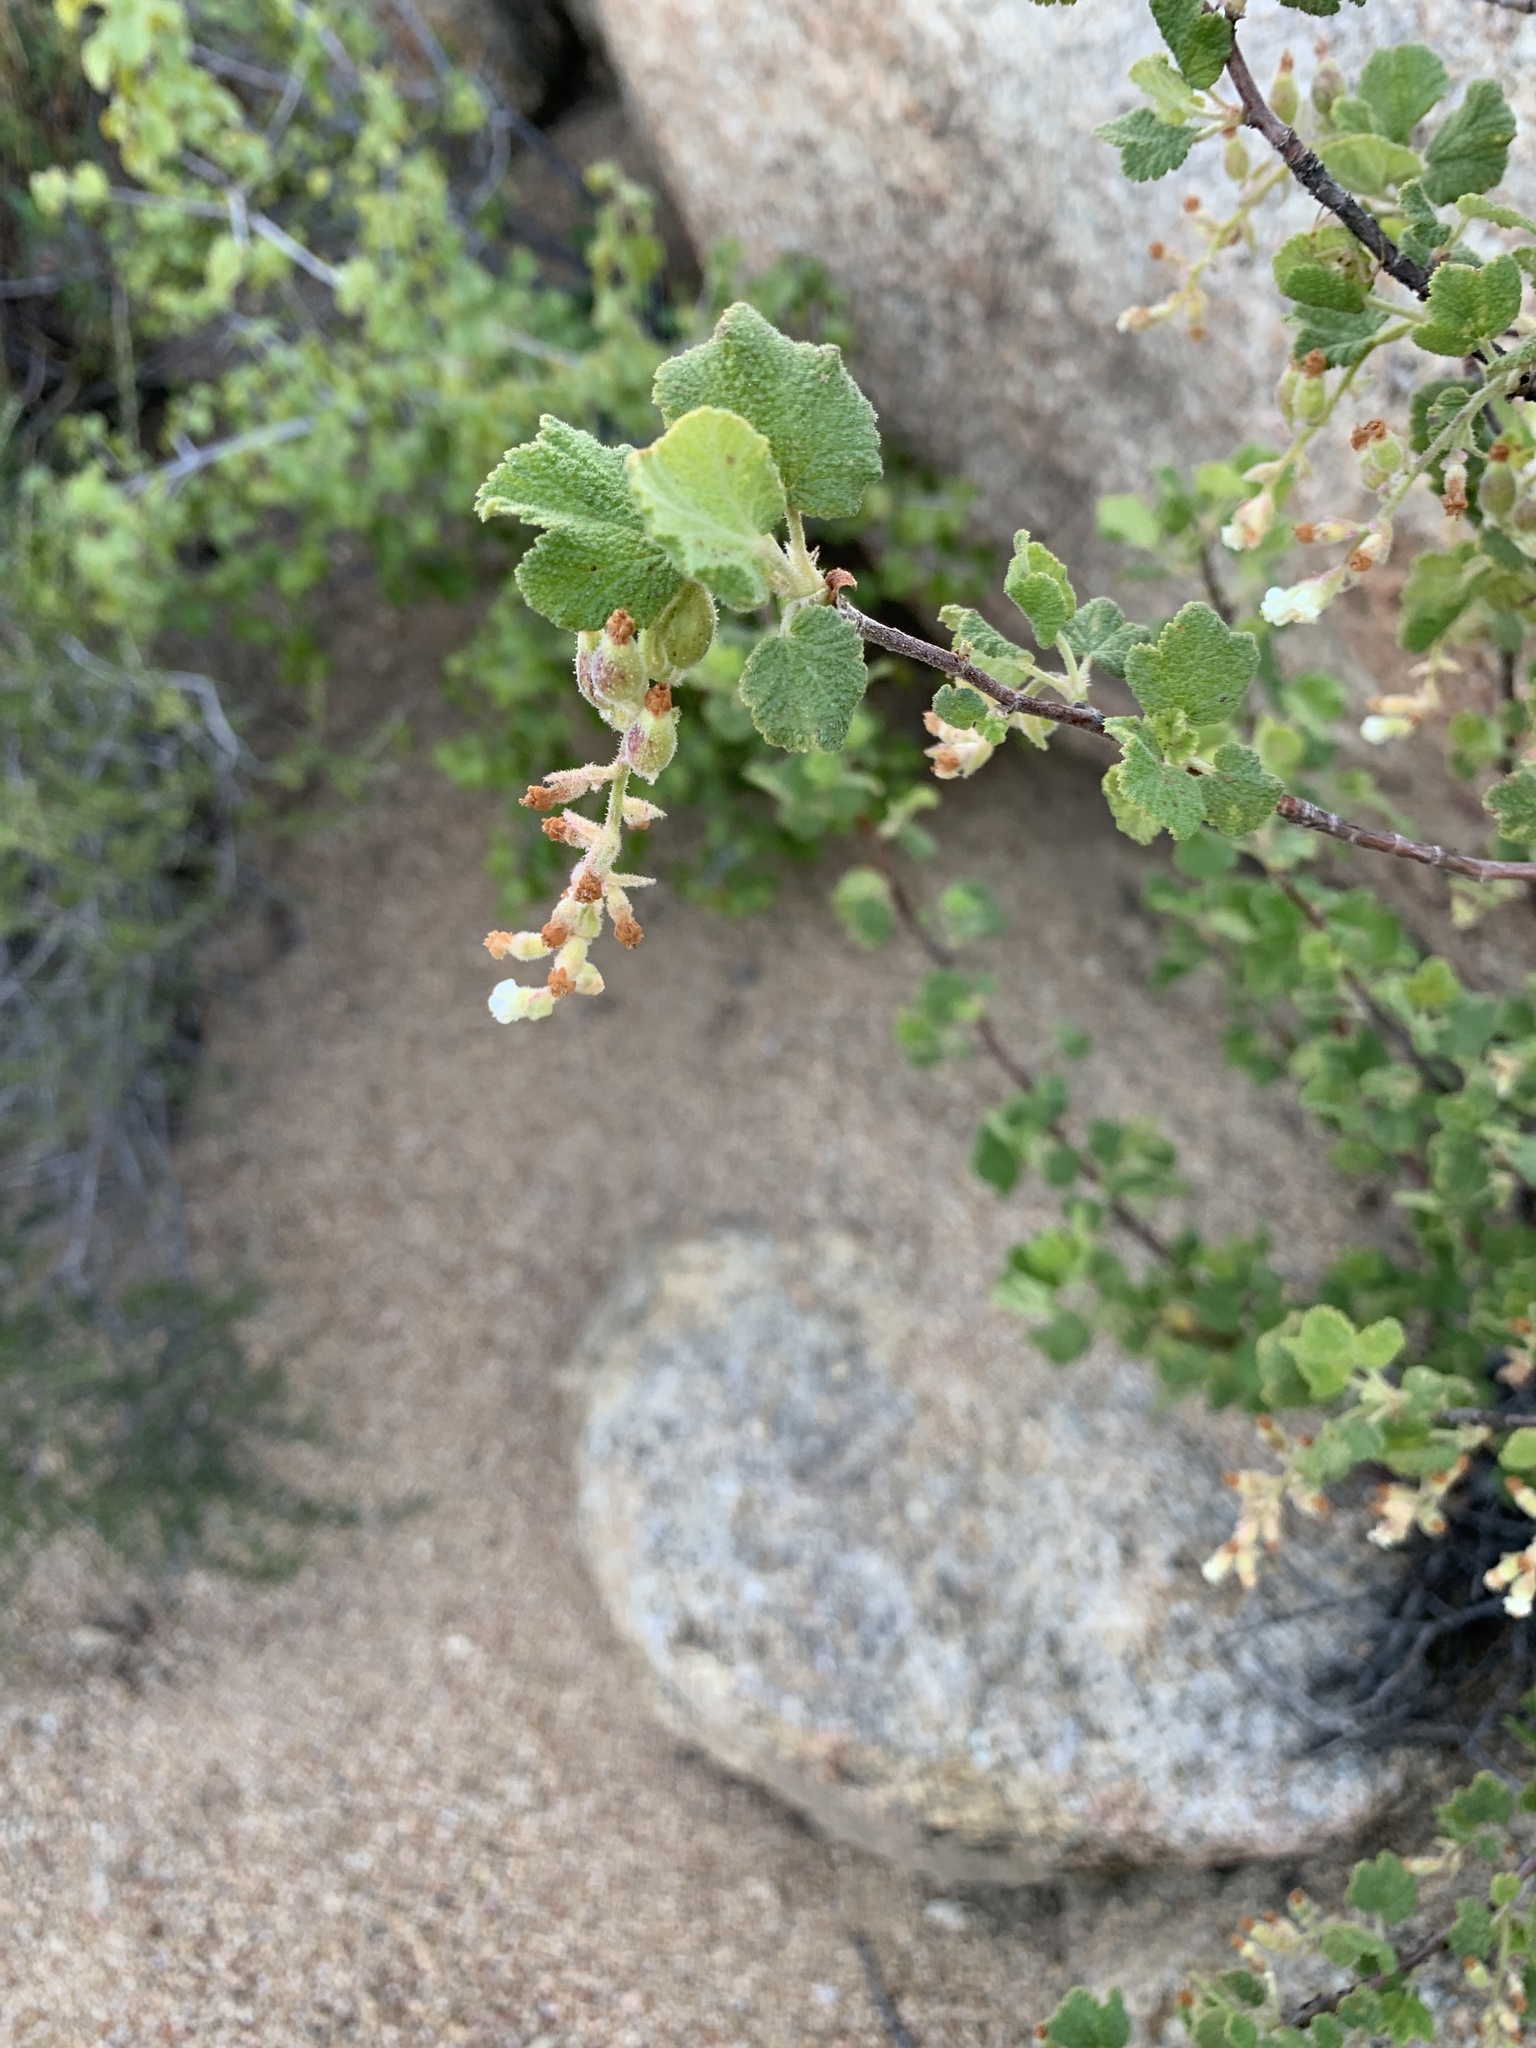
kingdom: Plantae
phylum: Tracheophyta
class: Magnoliopsida
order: Saxifragales
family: Grossulariaceae
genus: Ribes
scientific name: Ribes indecorum
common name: White-flower currant
